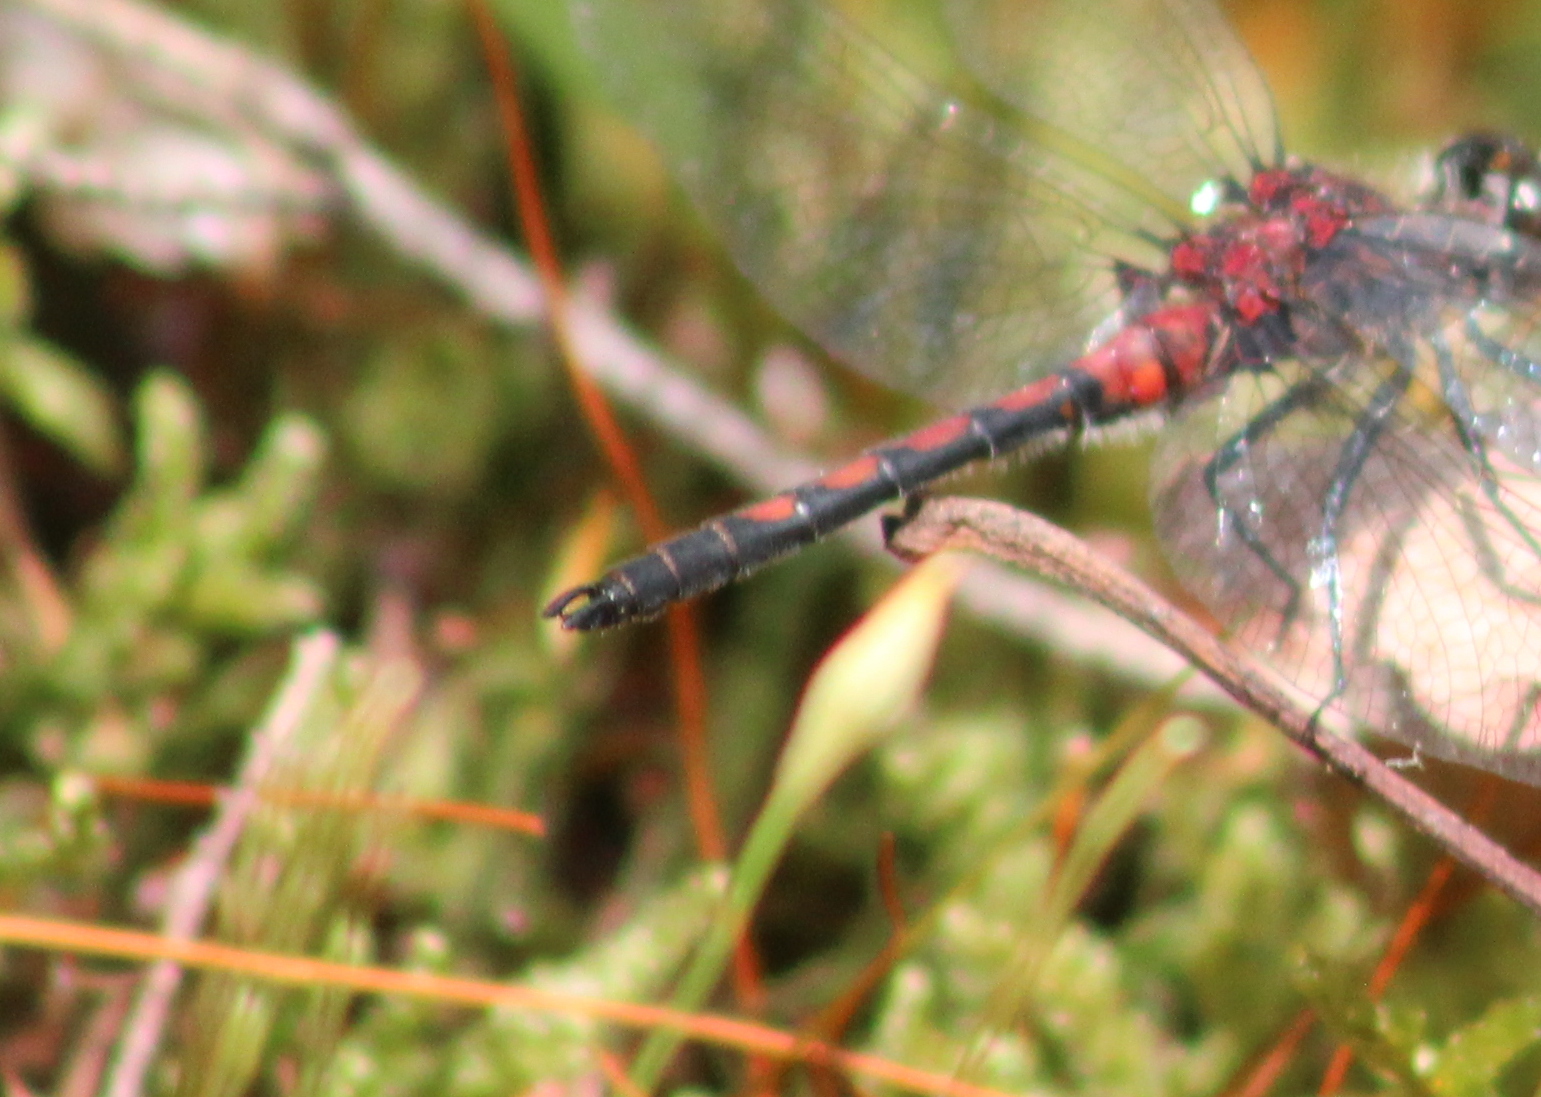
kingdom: Animalia
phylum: Arthropoda
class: Insecta
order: Odonata
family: Libellulidae
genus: Leucorrhinia
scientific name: Leucorrhinia hudsonica
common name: Hudsonian whiteface
